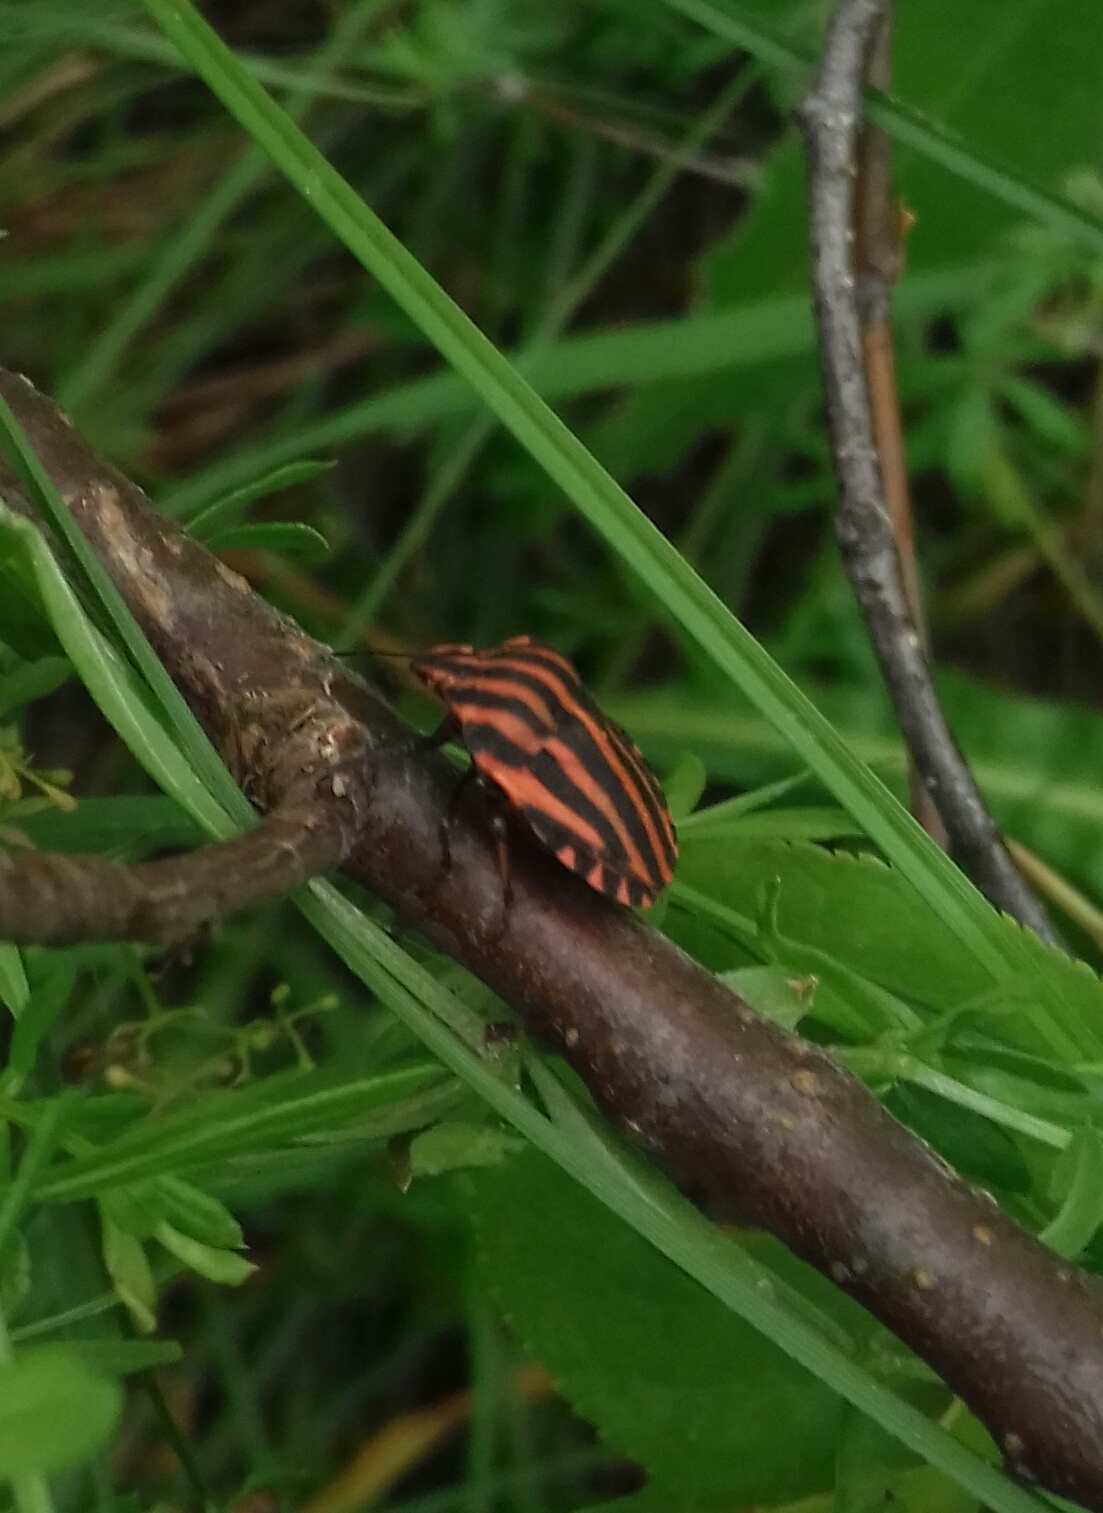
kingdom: Animalia
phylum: Arthropoda
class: Insecta
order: Hemiptera
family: Pentatomidae
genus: Graphosoma
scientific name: Graphosoma italicum
